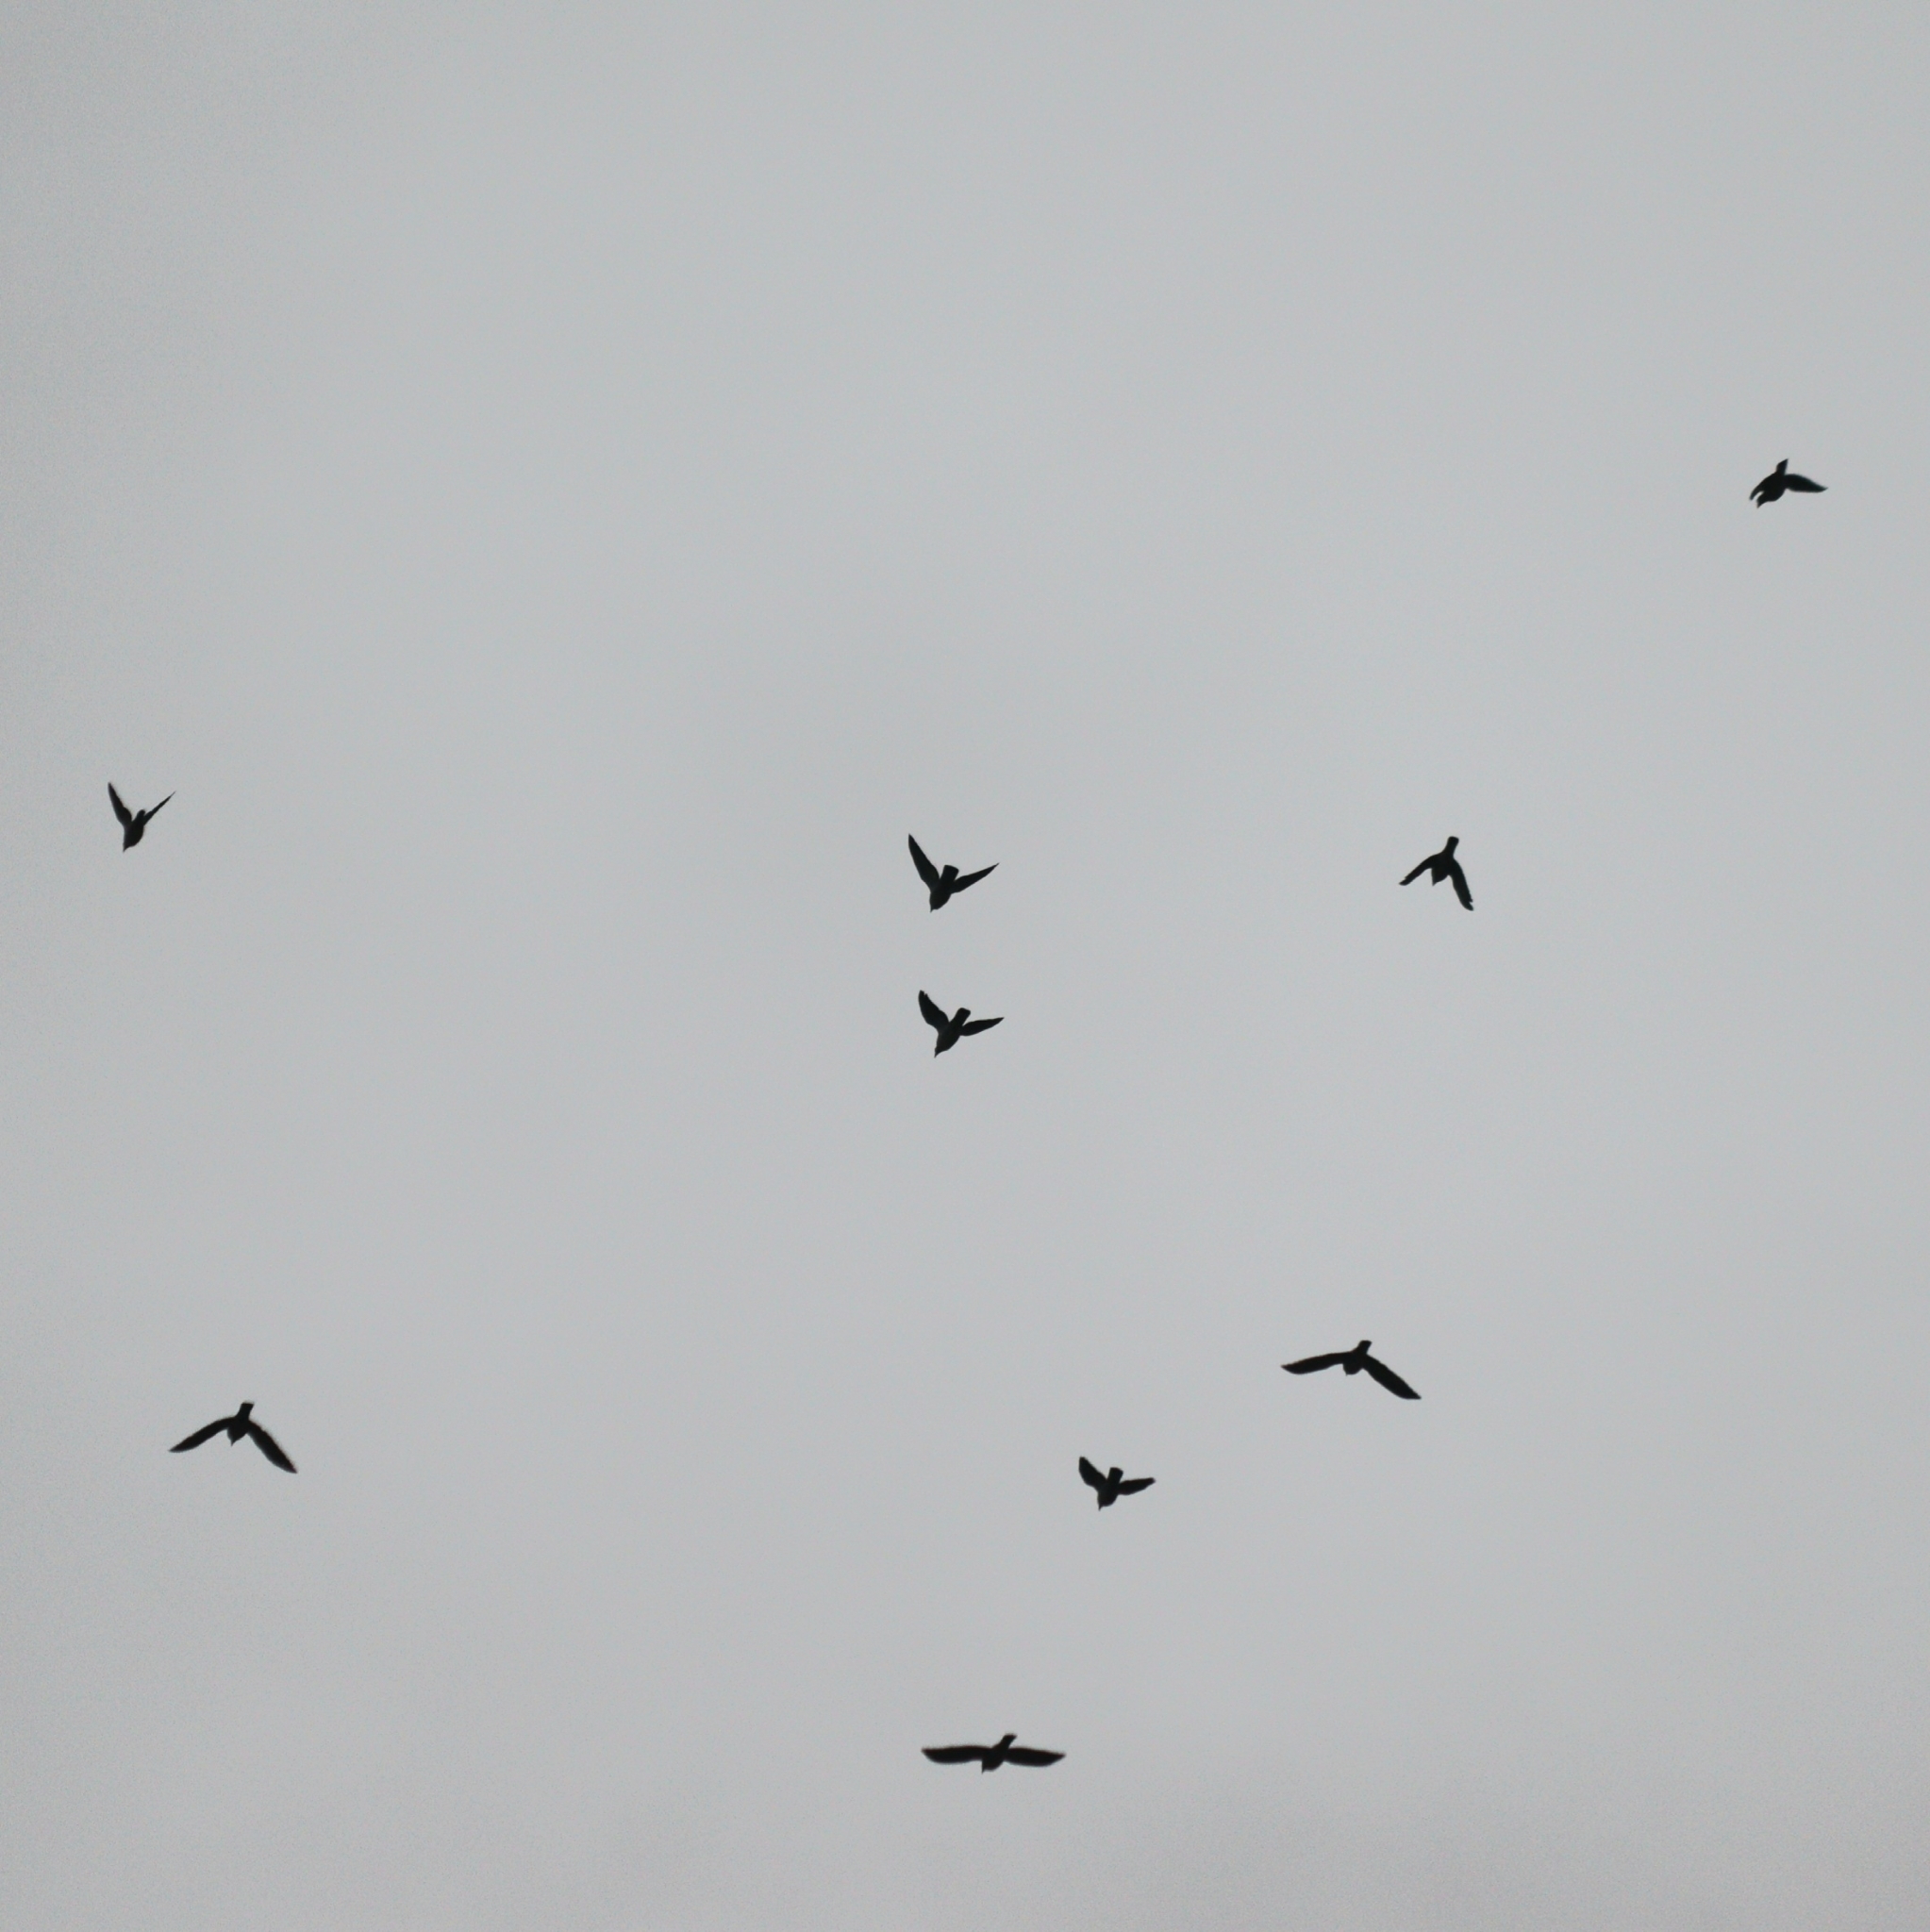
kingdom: Animalia
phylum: Chordata
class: Aves
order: Passeriformes
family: Corvidae
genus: Coloeus
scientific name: Coloeus monedula
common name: Western jackdaw
